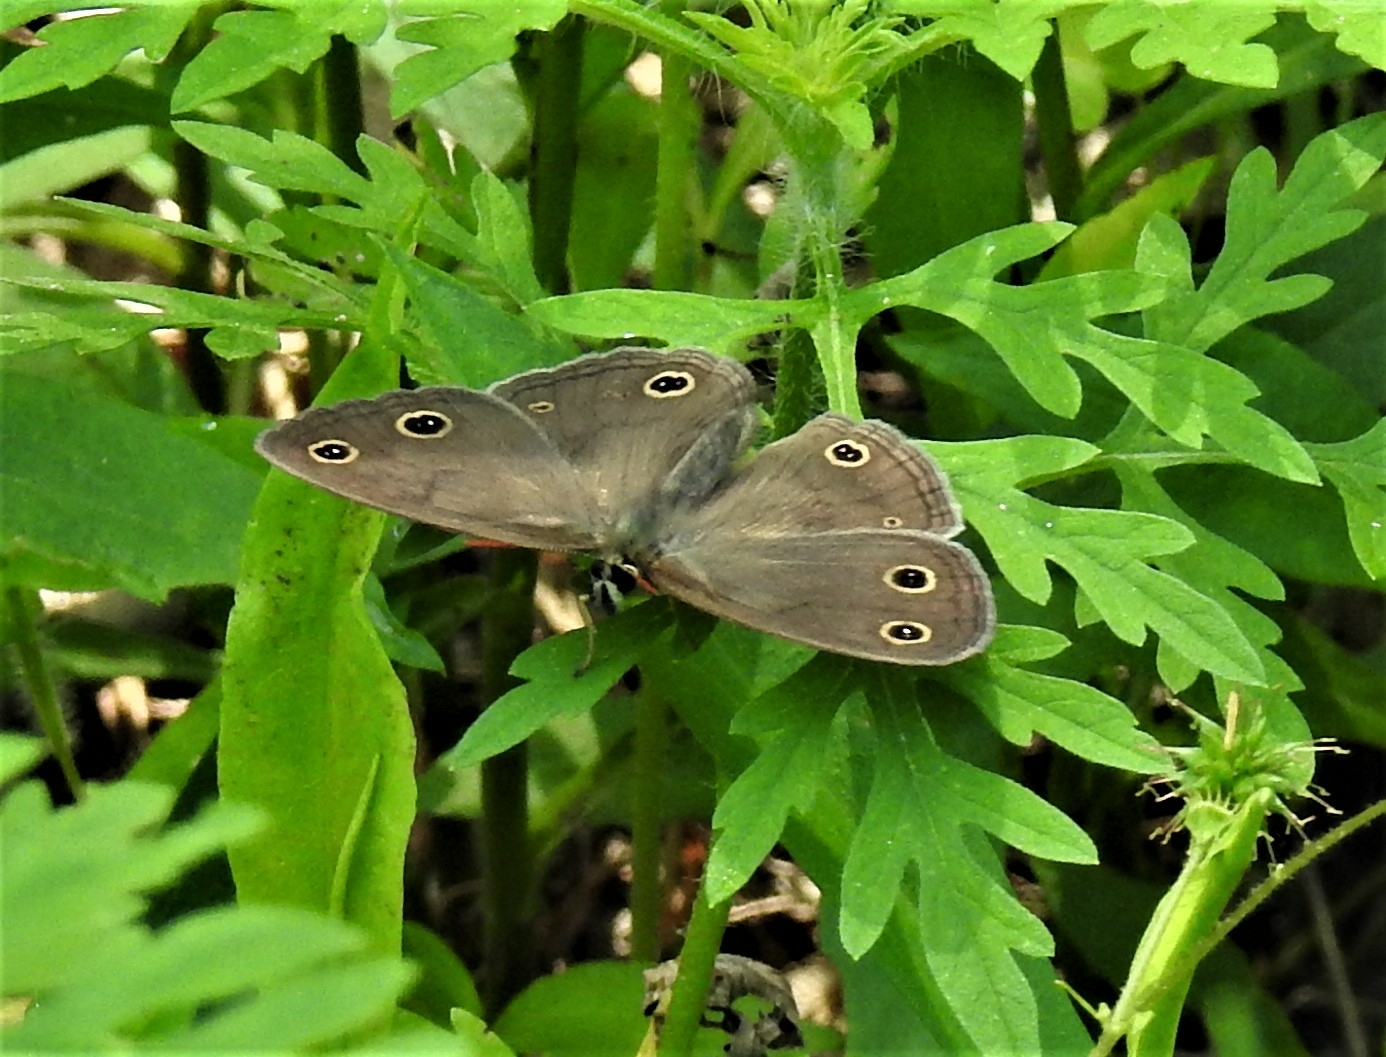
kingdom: Animalia
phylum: Arthropoda
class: Insecta
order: Lepidoptera
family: Nymphalidae
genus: Euptychia
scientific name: Euptychia cymela
